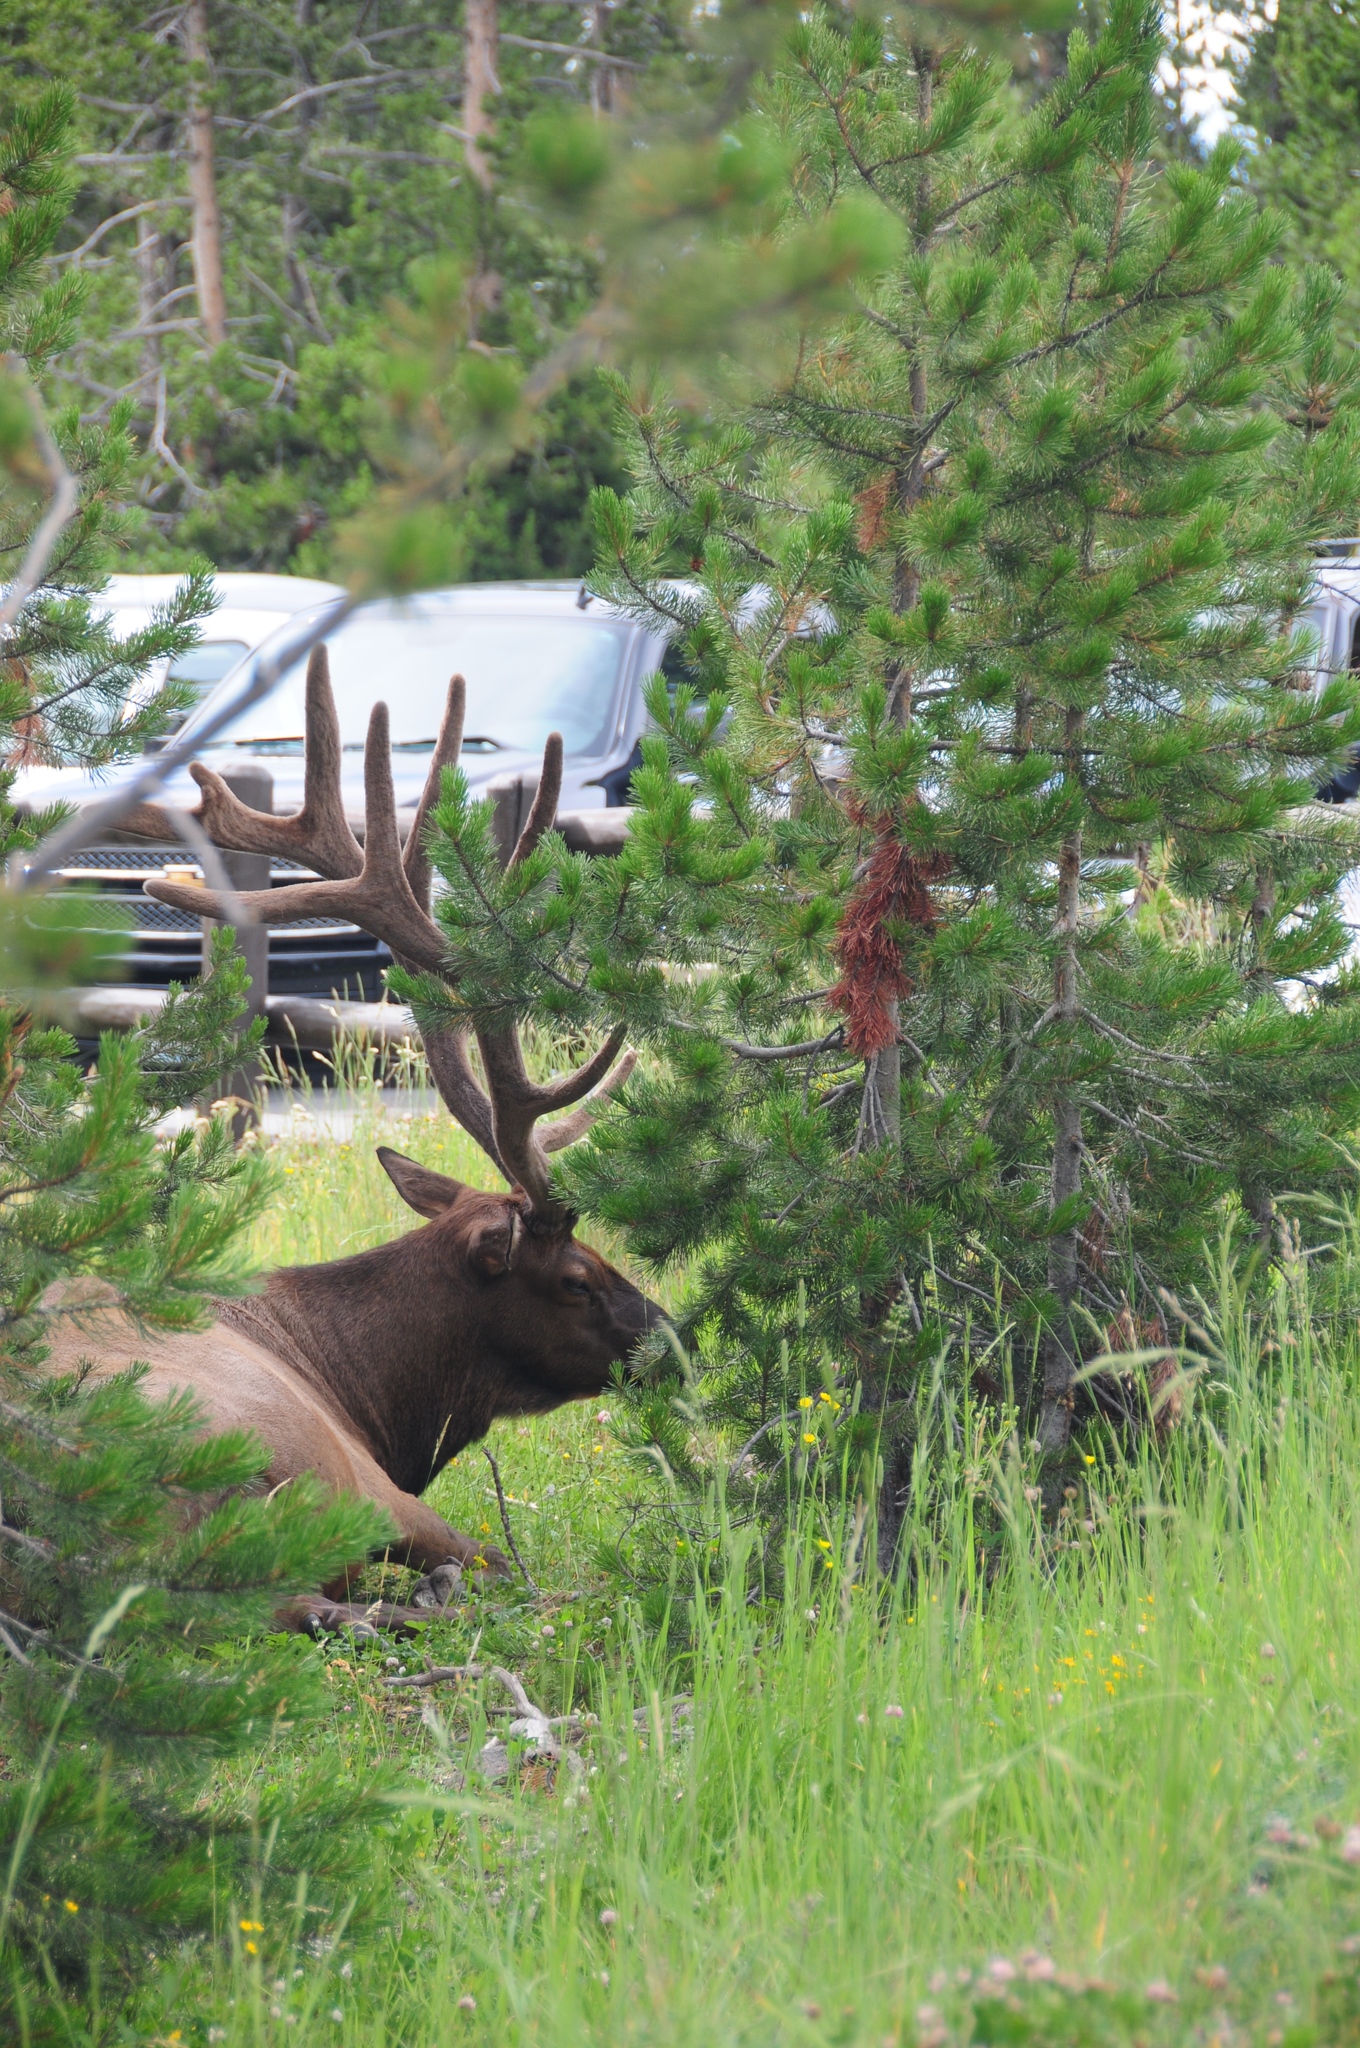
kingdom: Animalia
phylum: Chordata
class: Mammalia
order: Artiodactyla
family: Cervidae
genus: Cervus
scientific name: Cervus elaphus
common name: Red deer
